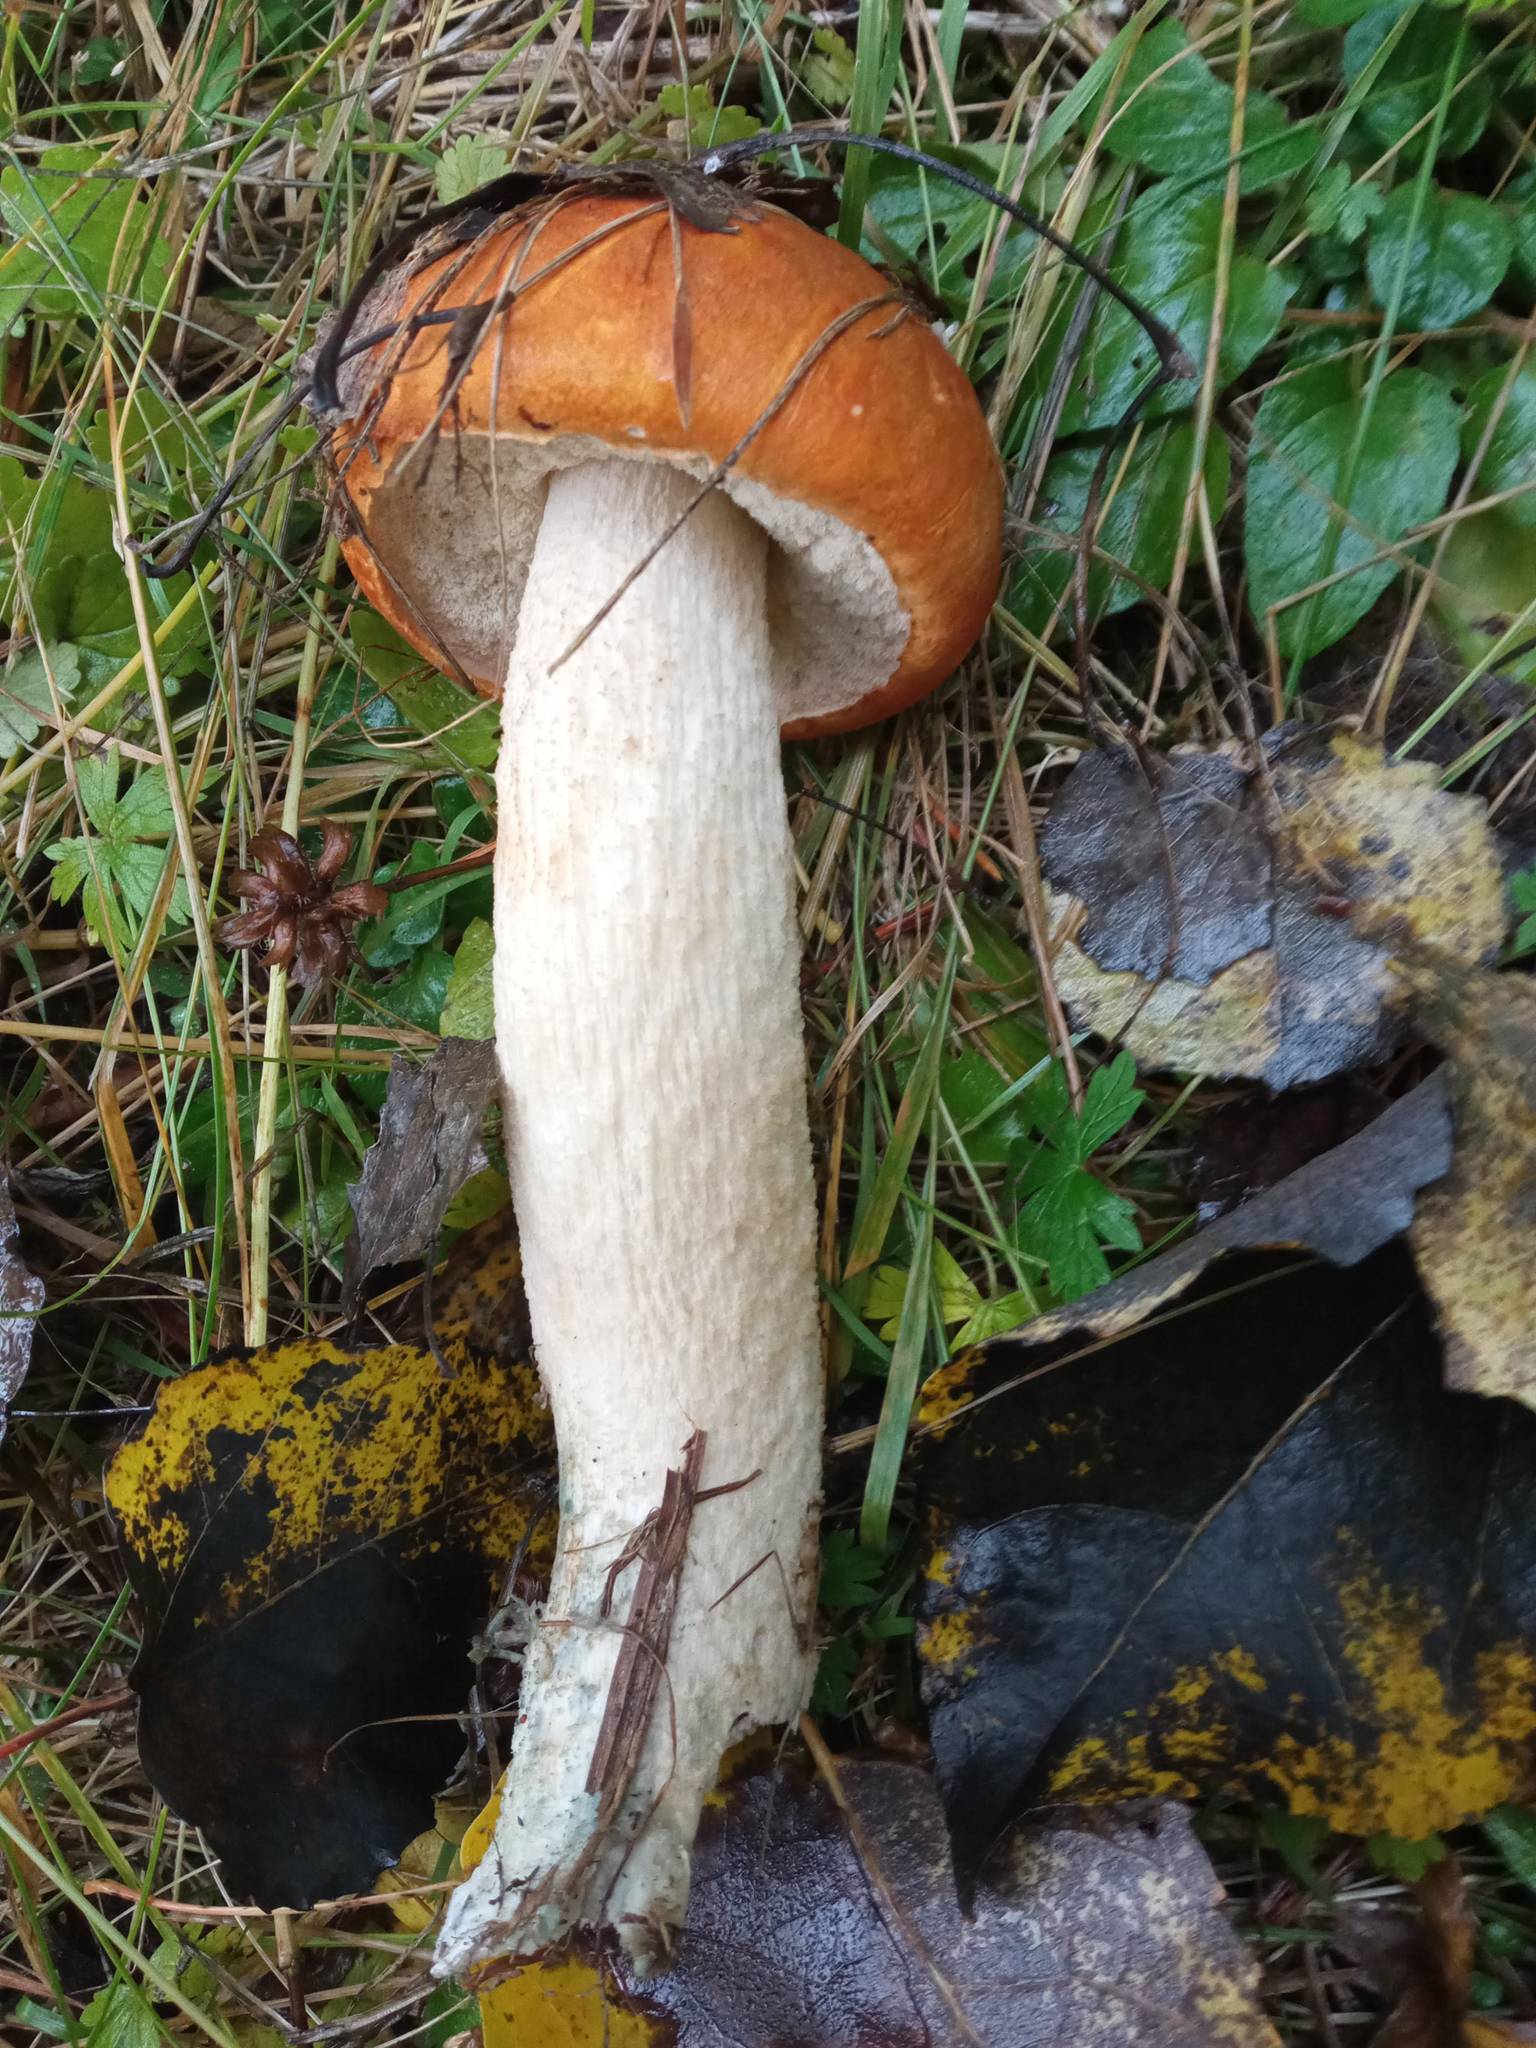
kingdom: Fungi
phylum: Basidiomycota
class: Agaricomycetes
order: Boletales
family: Boletaceae
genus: Leccinum
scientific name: Leccinum albostipitatum
